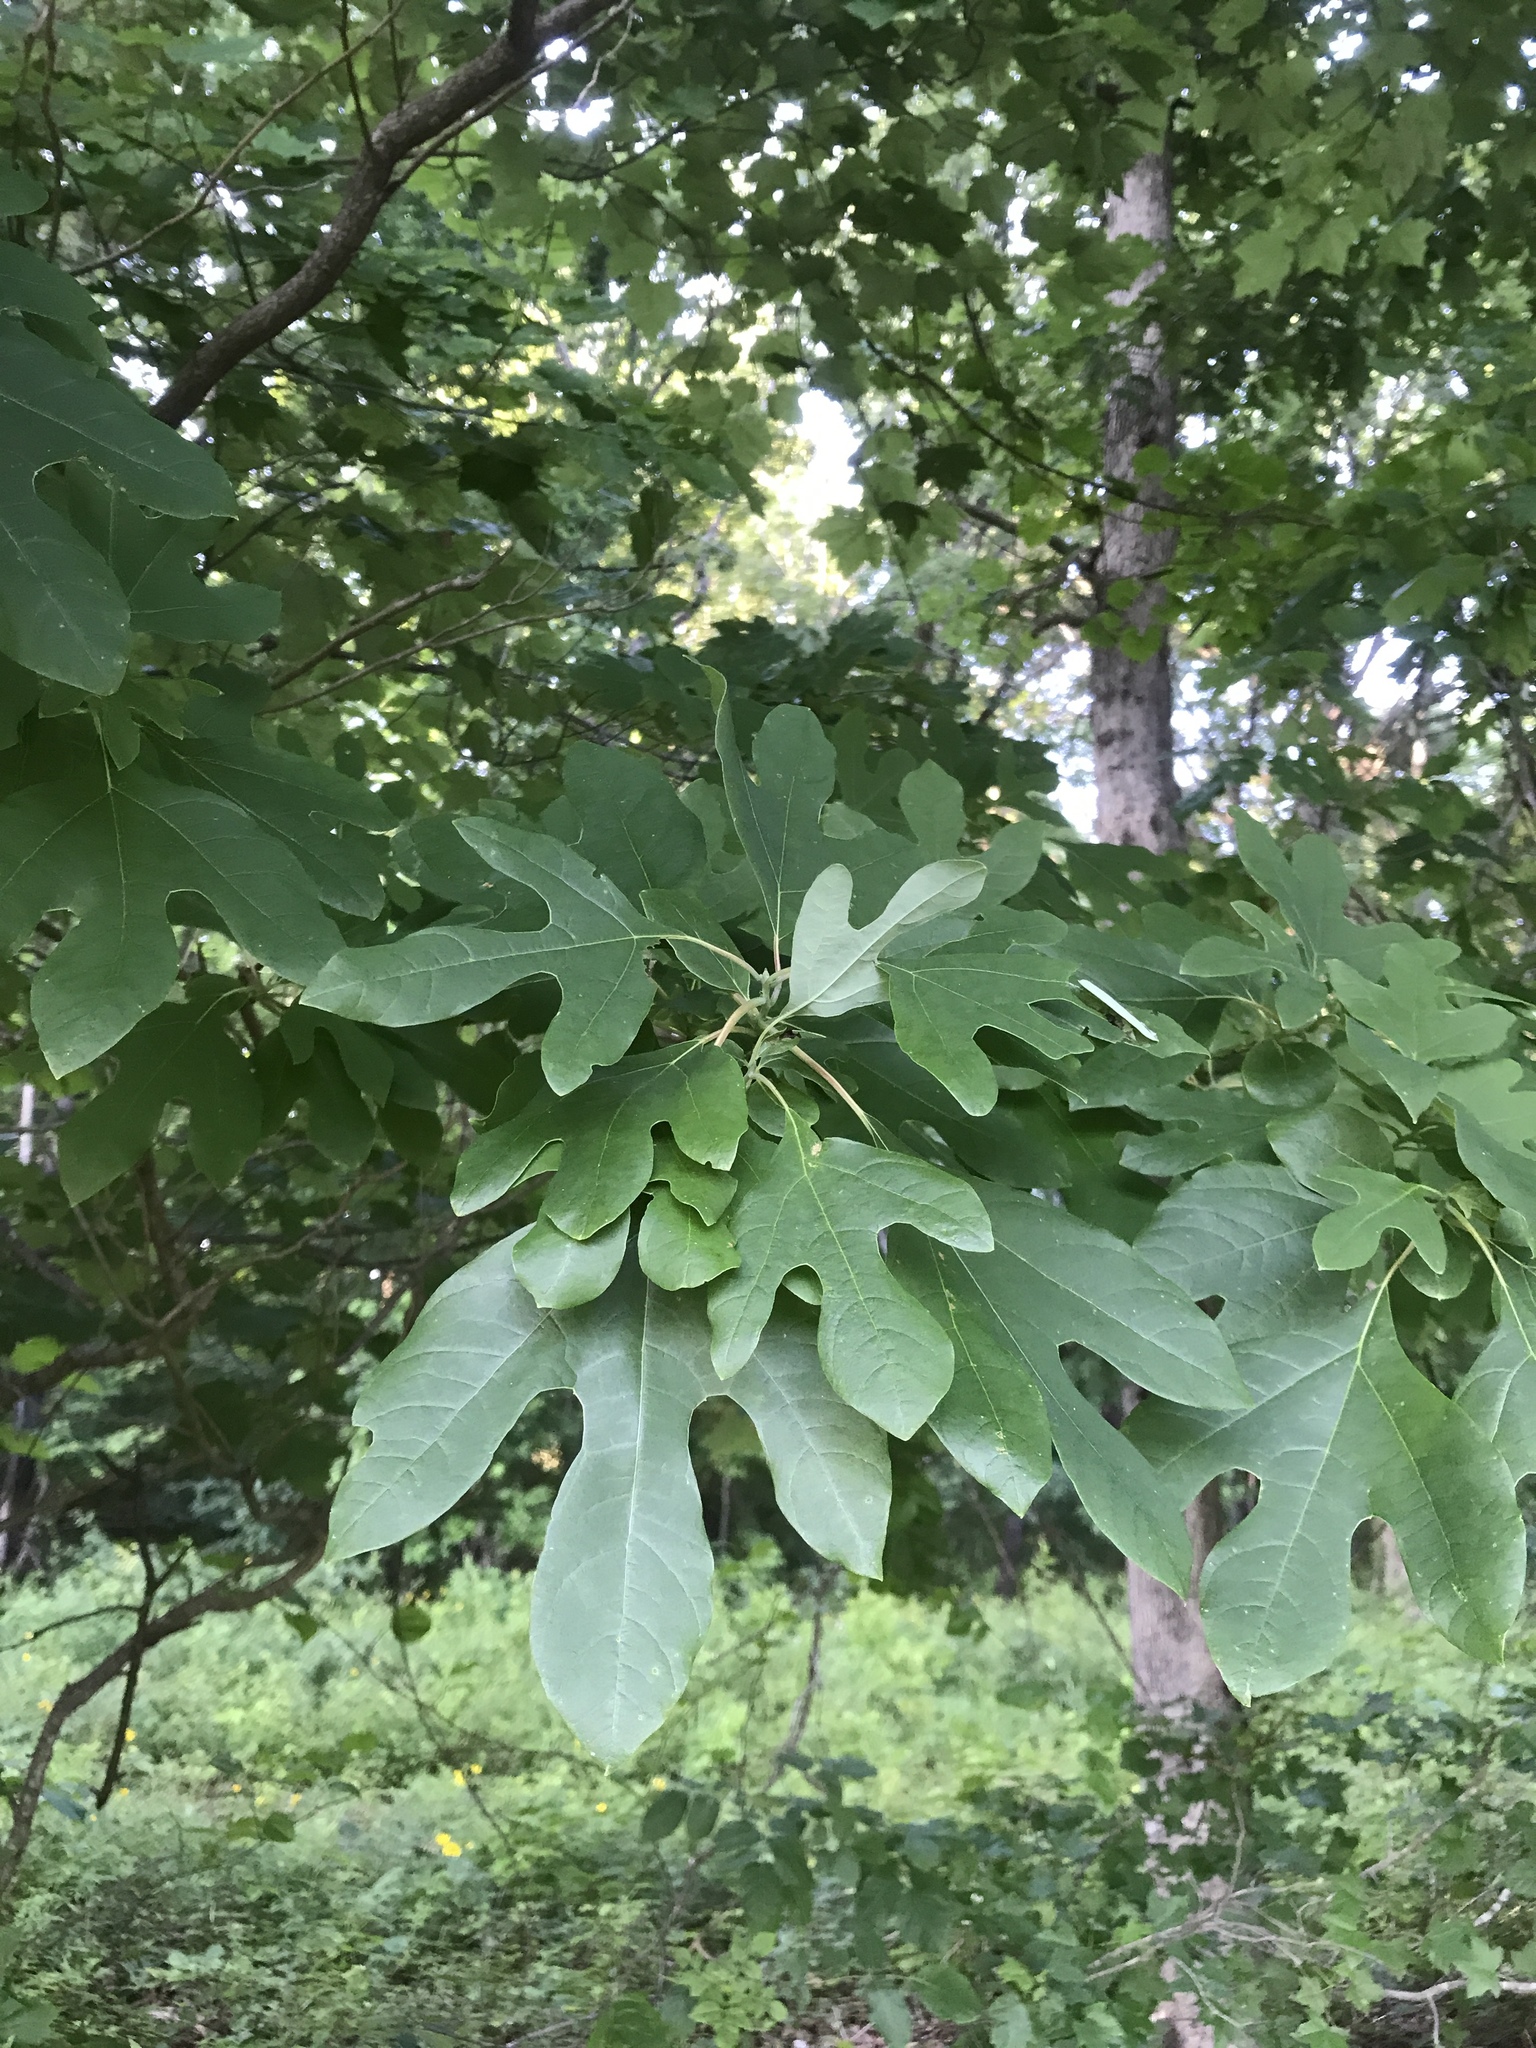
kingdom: Plantae
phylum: Tracheophyta
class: Magnoliopsida
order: Laurales
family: Lauraceae
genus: Sassafras
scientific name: Sassafras albidum
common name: Sassafras
